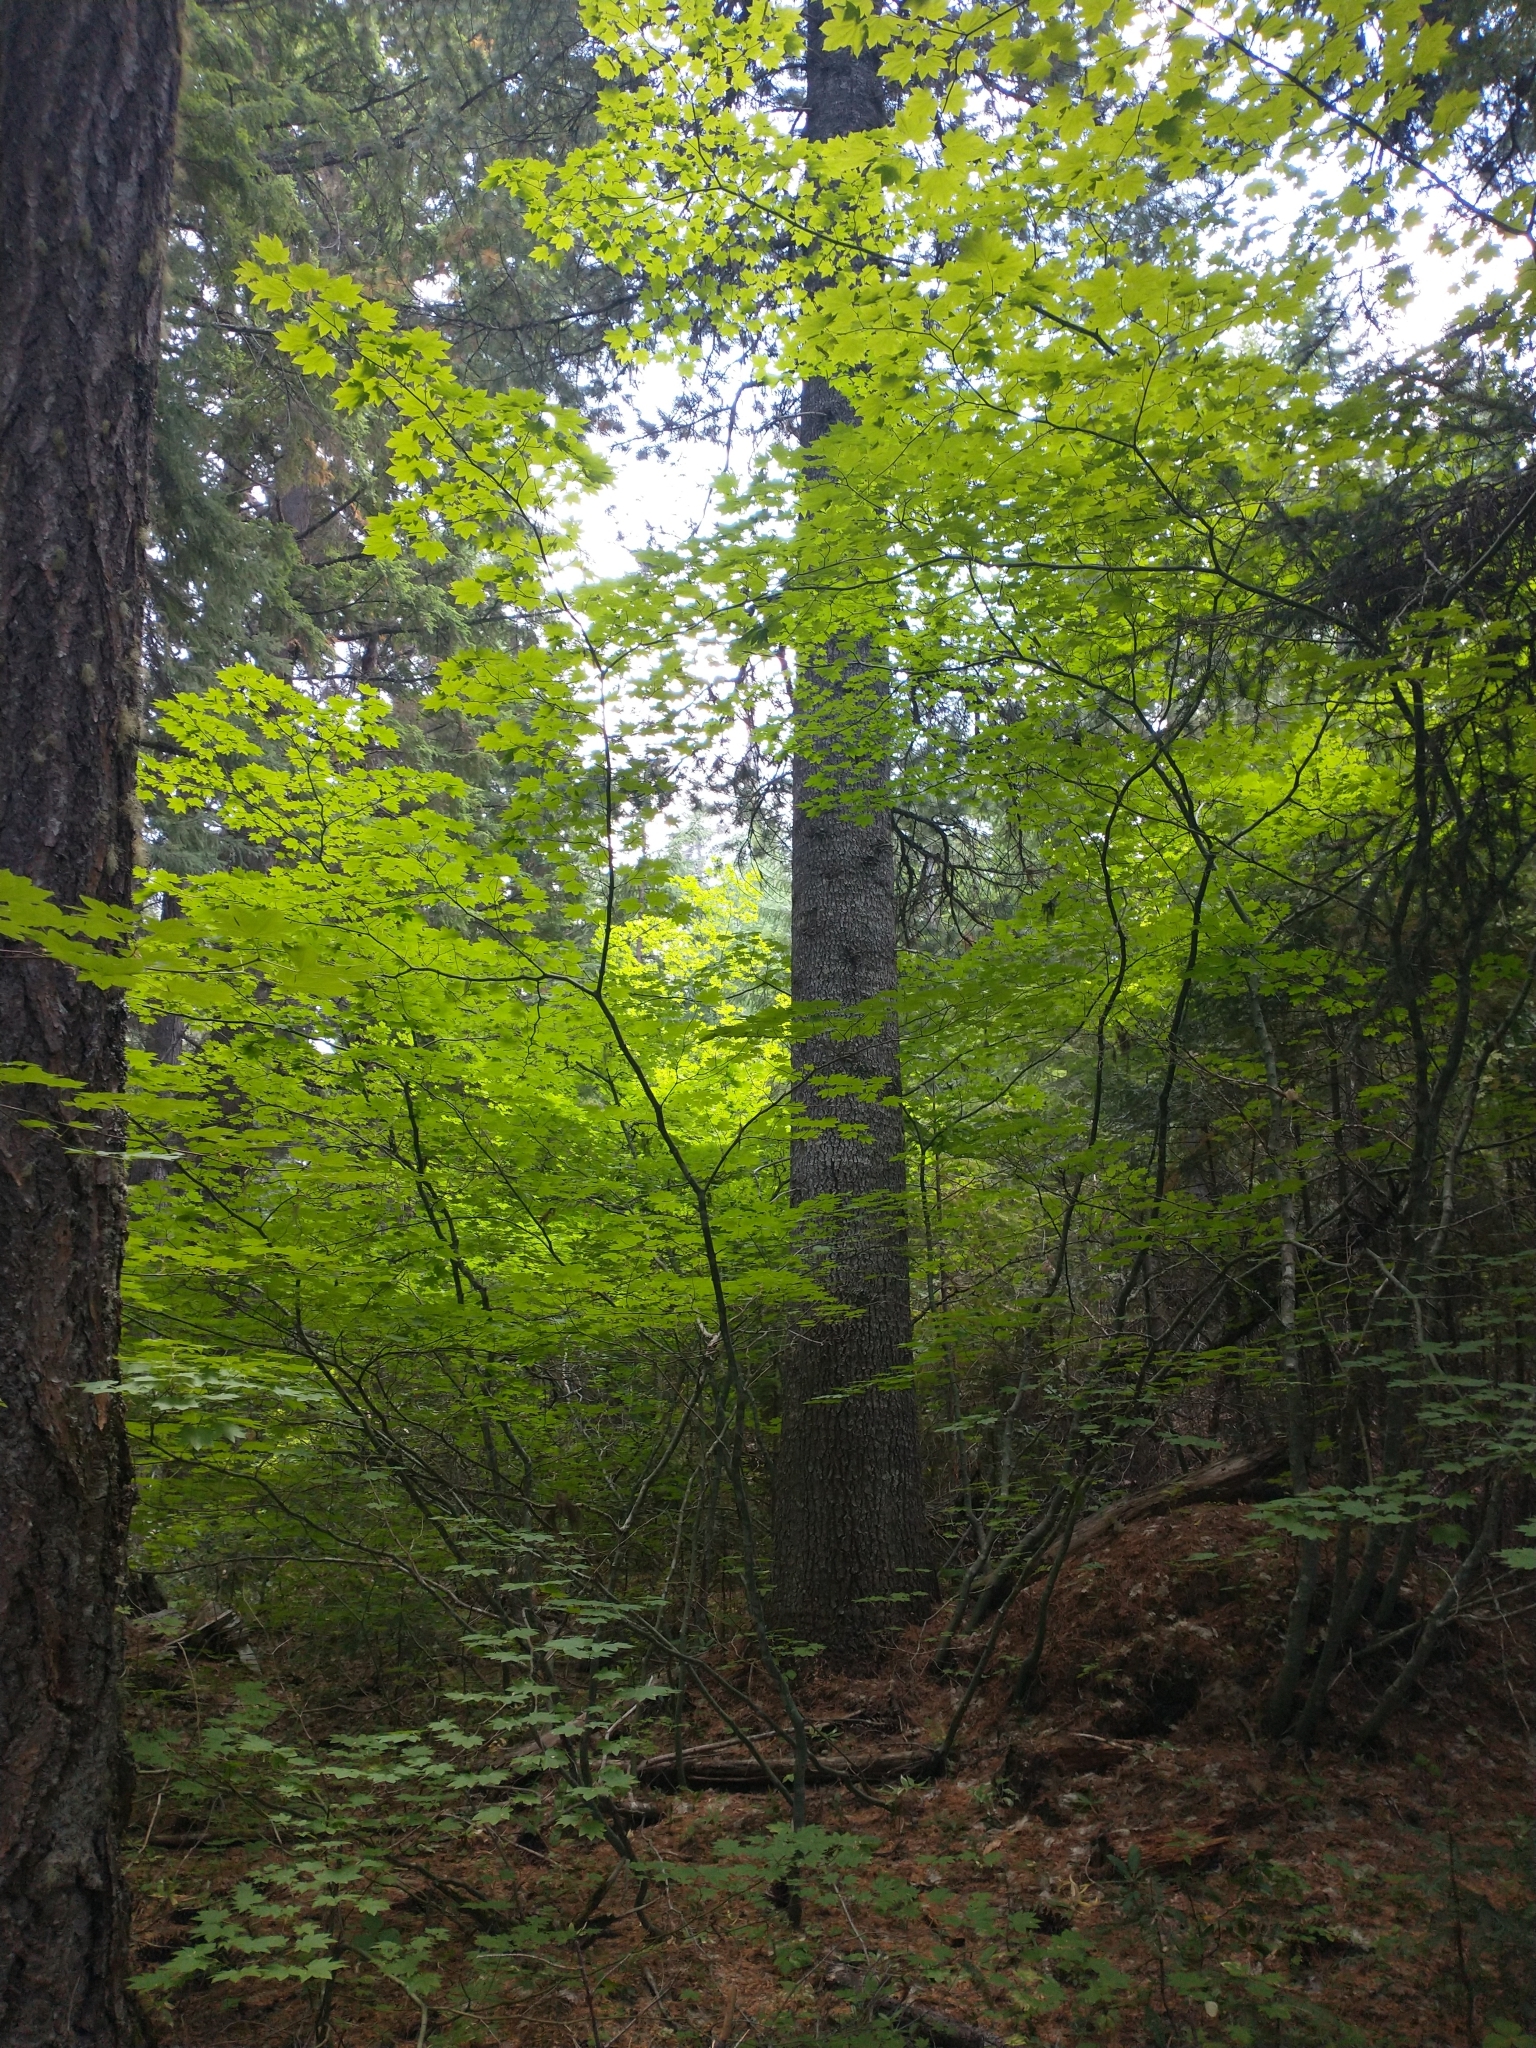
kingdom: Plantae
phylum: Tracheophyta
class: Magnoliopsida
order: Sapindales
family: Sapindaceae
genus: Acer
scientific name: Acer circinatum
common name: Vine maple
